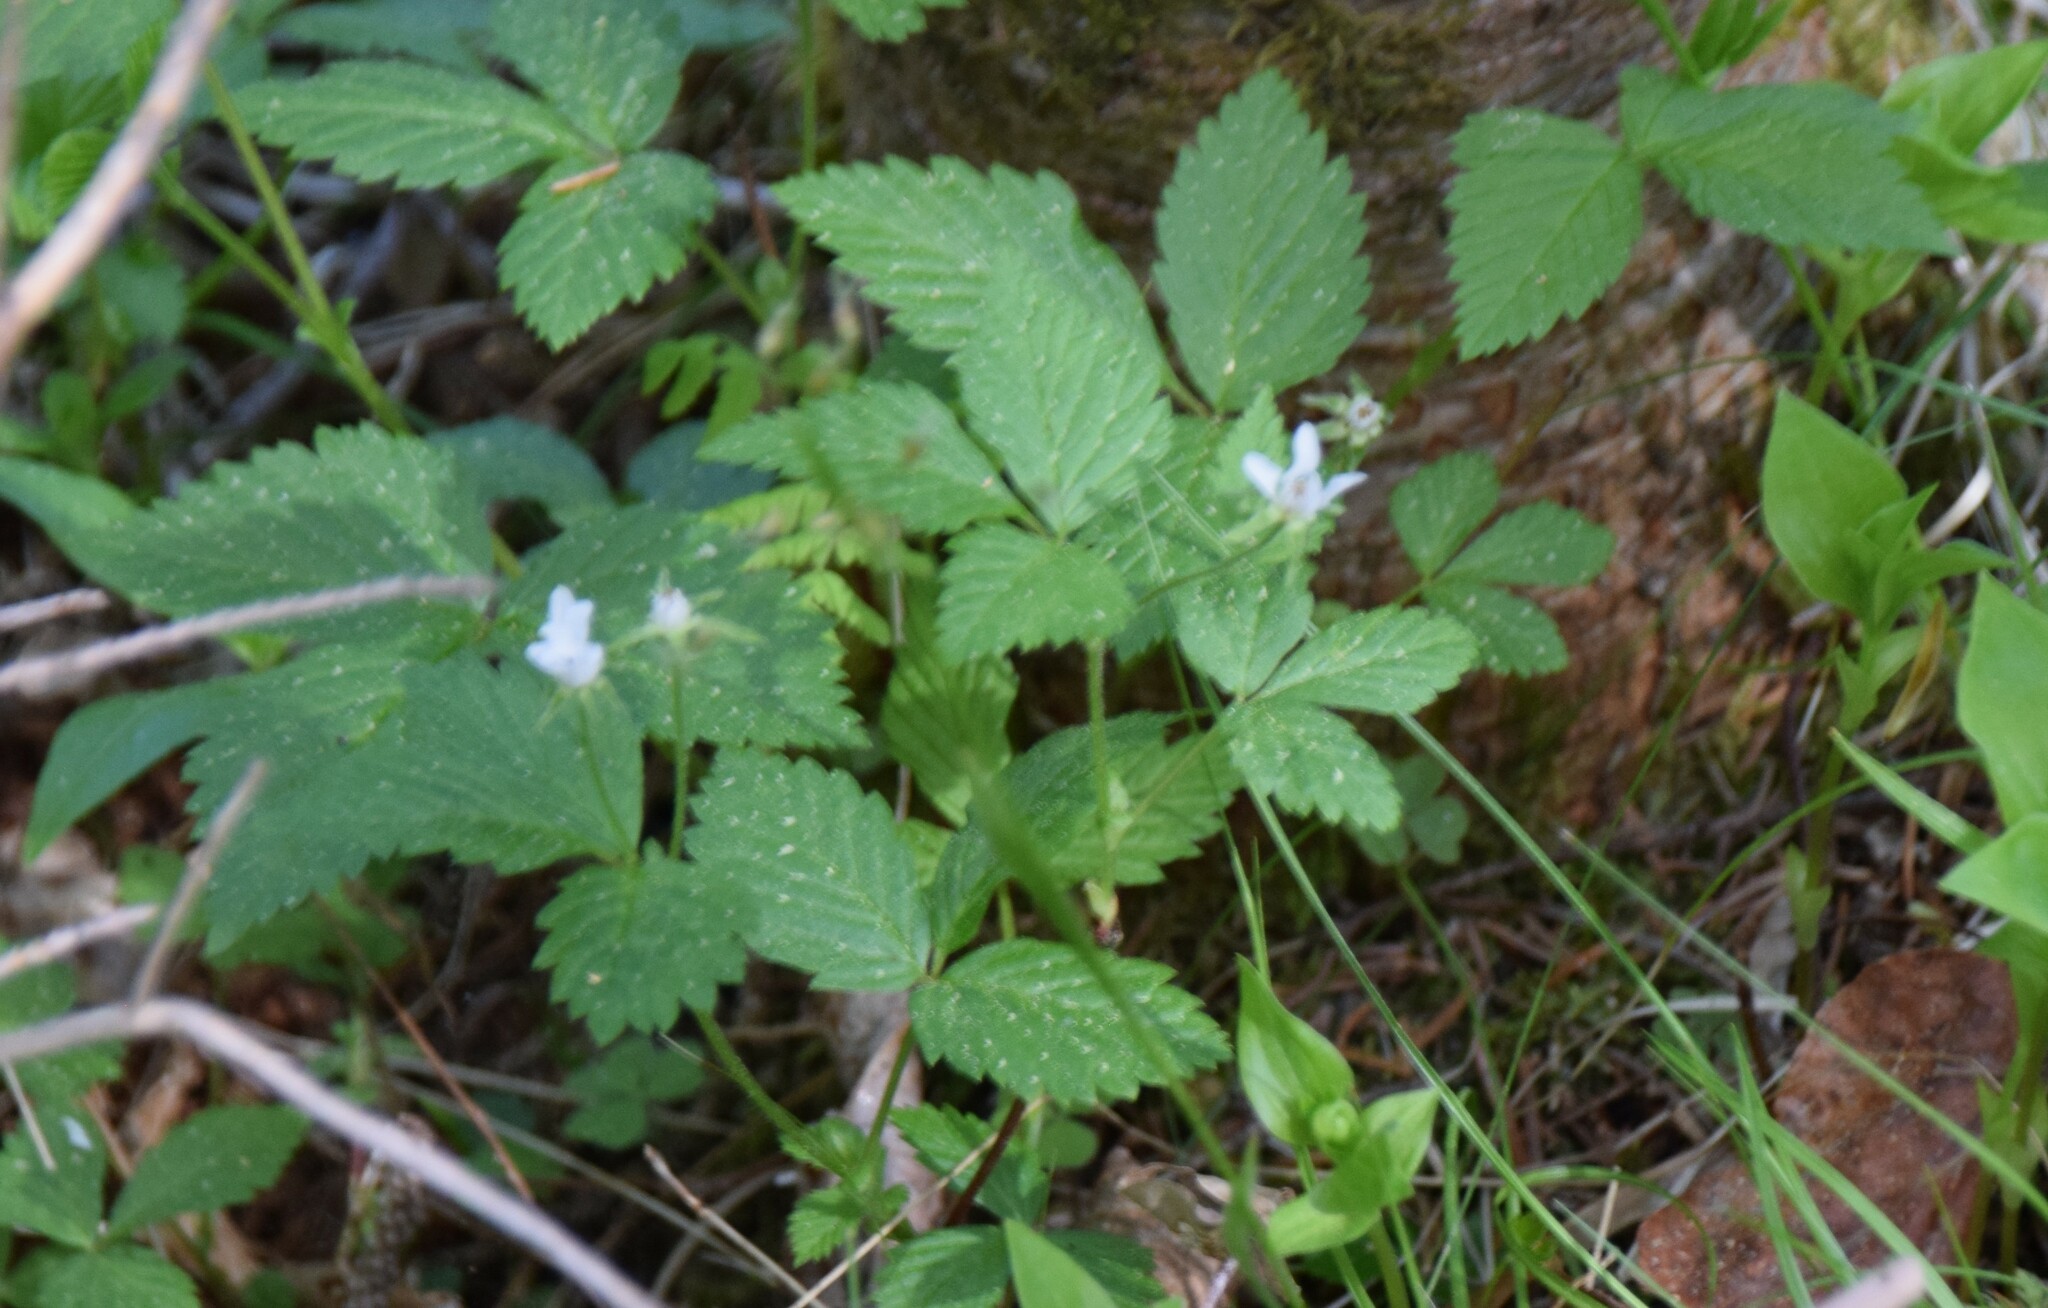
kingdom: Plantae
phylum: Tracheophyta
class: Magnoliopsida
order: Rosales
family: Rosaceae
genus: Rubus
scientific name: Rubus pubescens
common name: Dwarf raspberry
